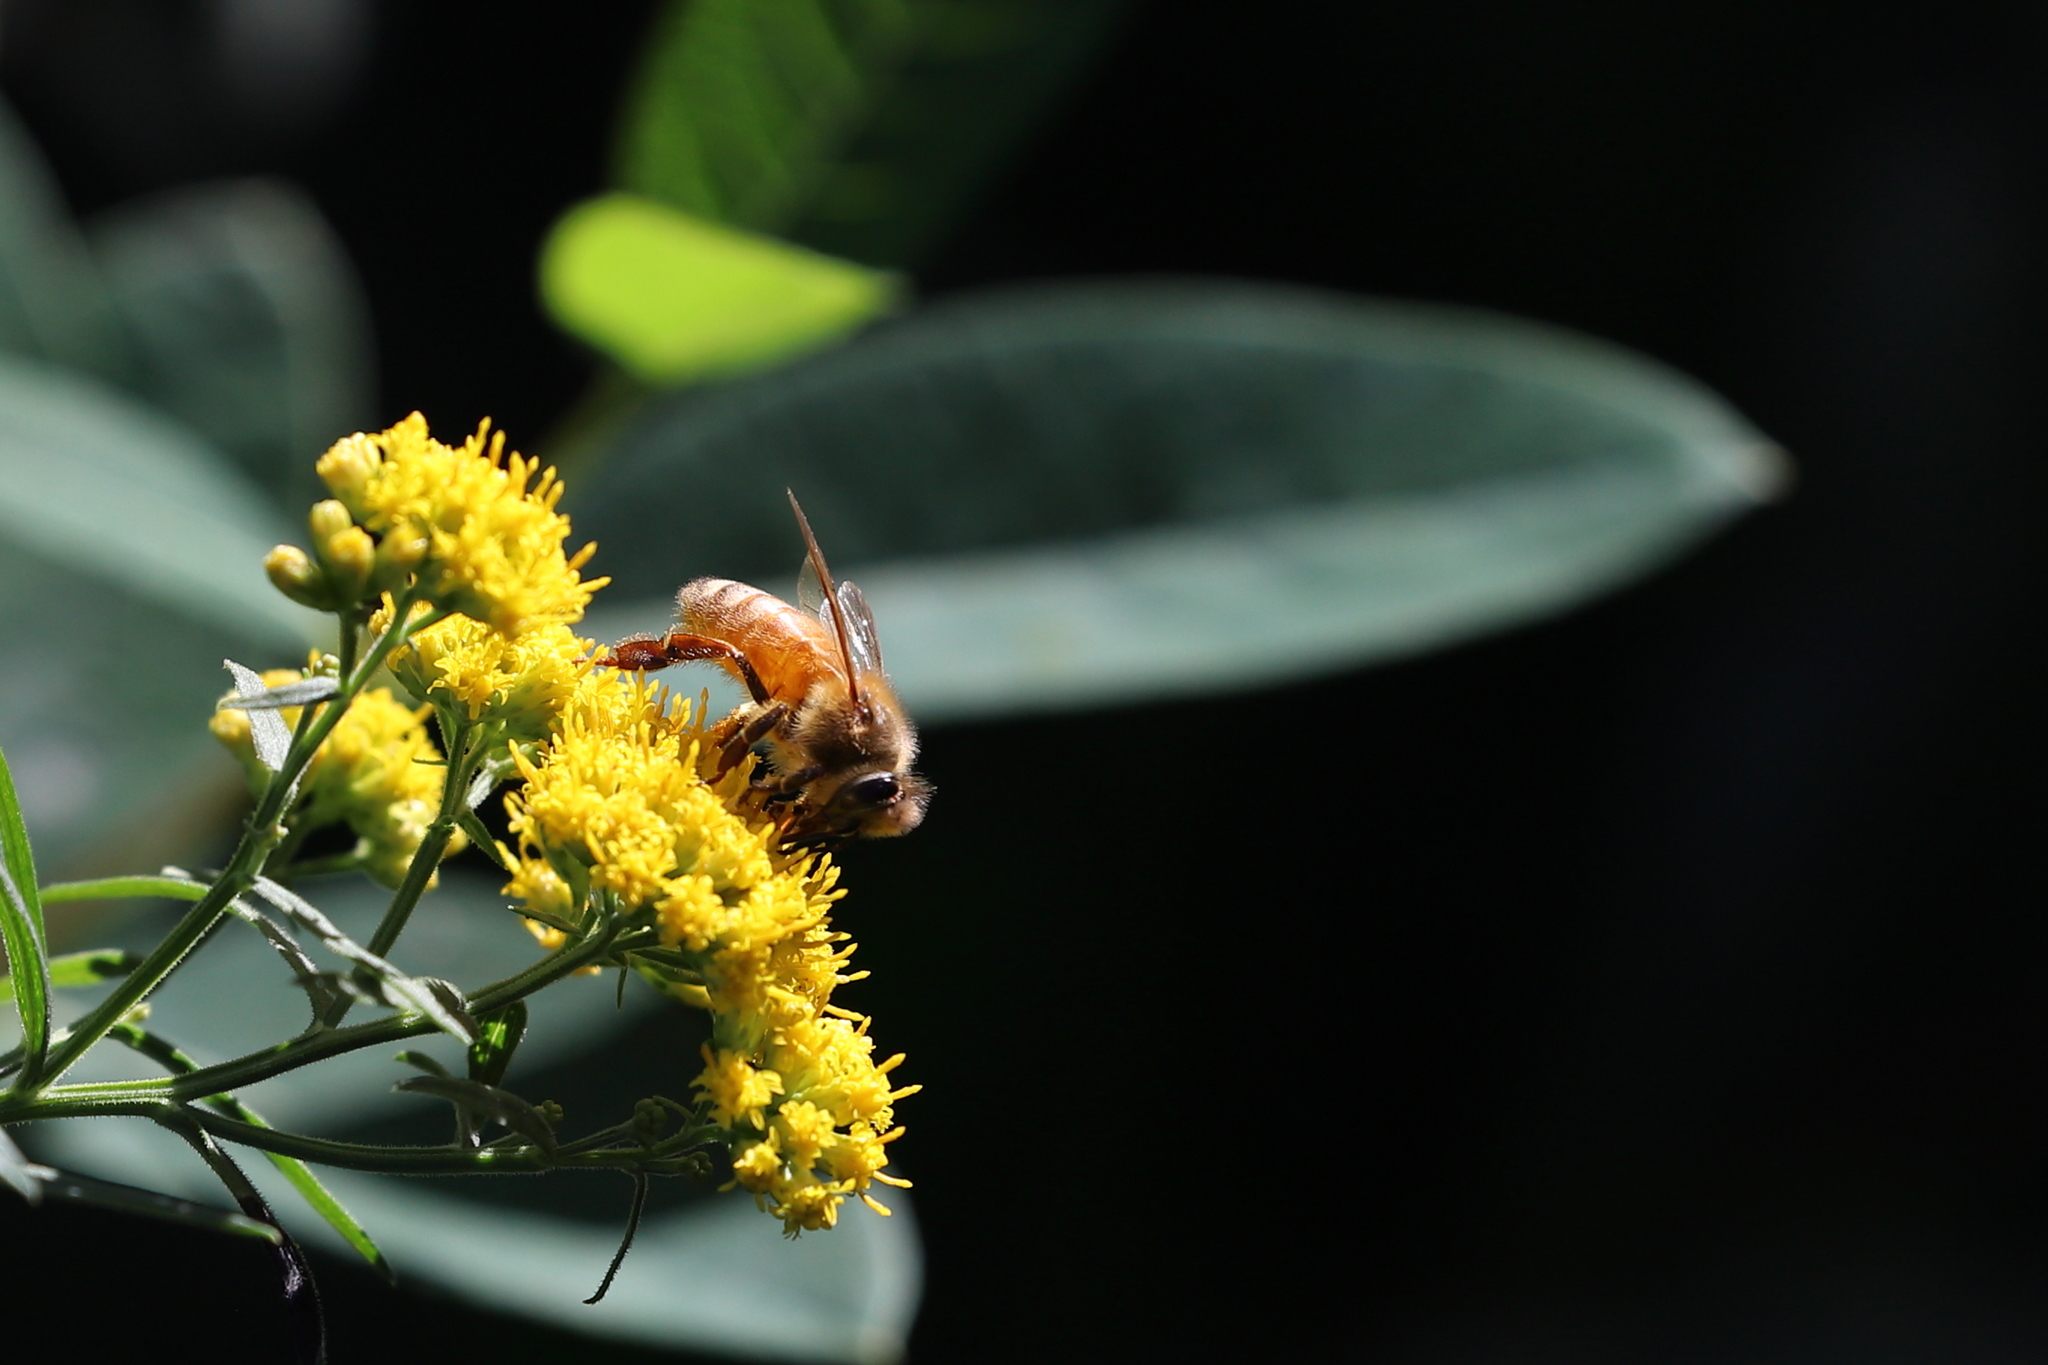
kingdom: Animalia
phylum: Arthropoda
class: Insecta
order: Hymenoptera
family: Apidae
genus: Apis
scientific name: Apis mellifera
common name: Honey bee
